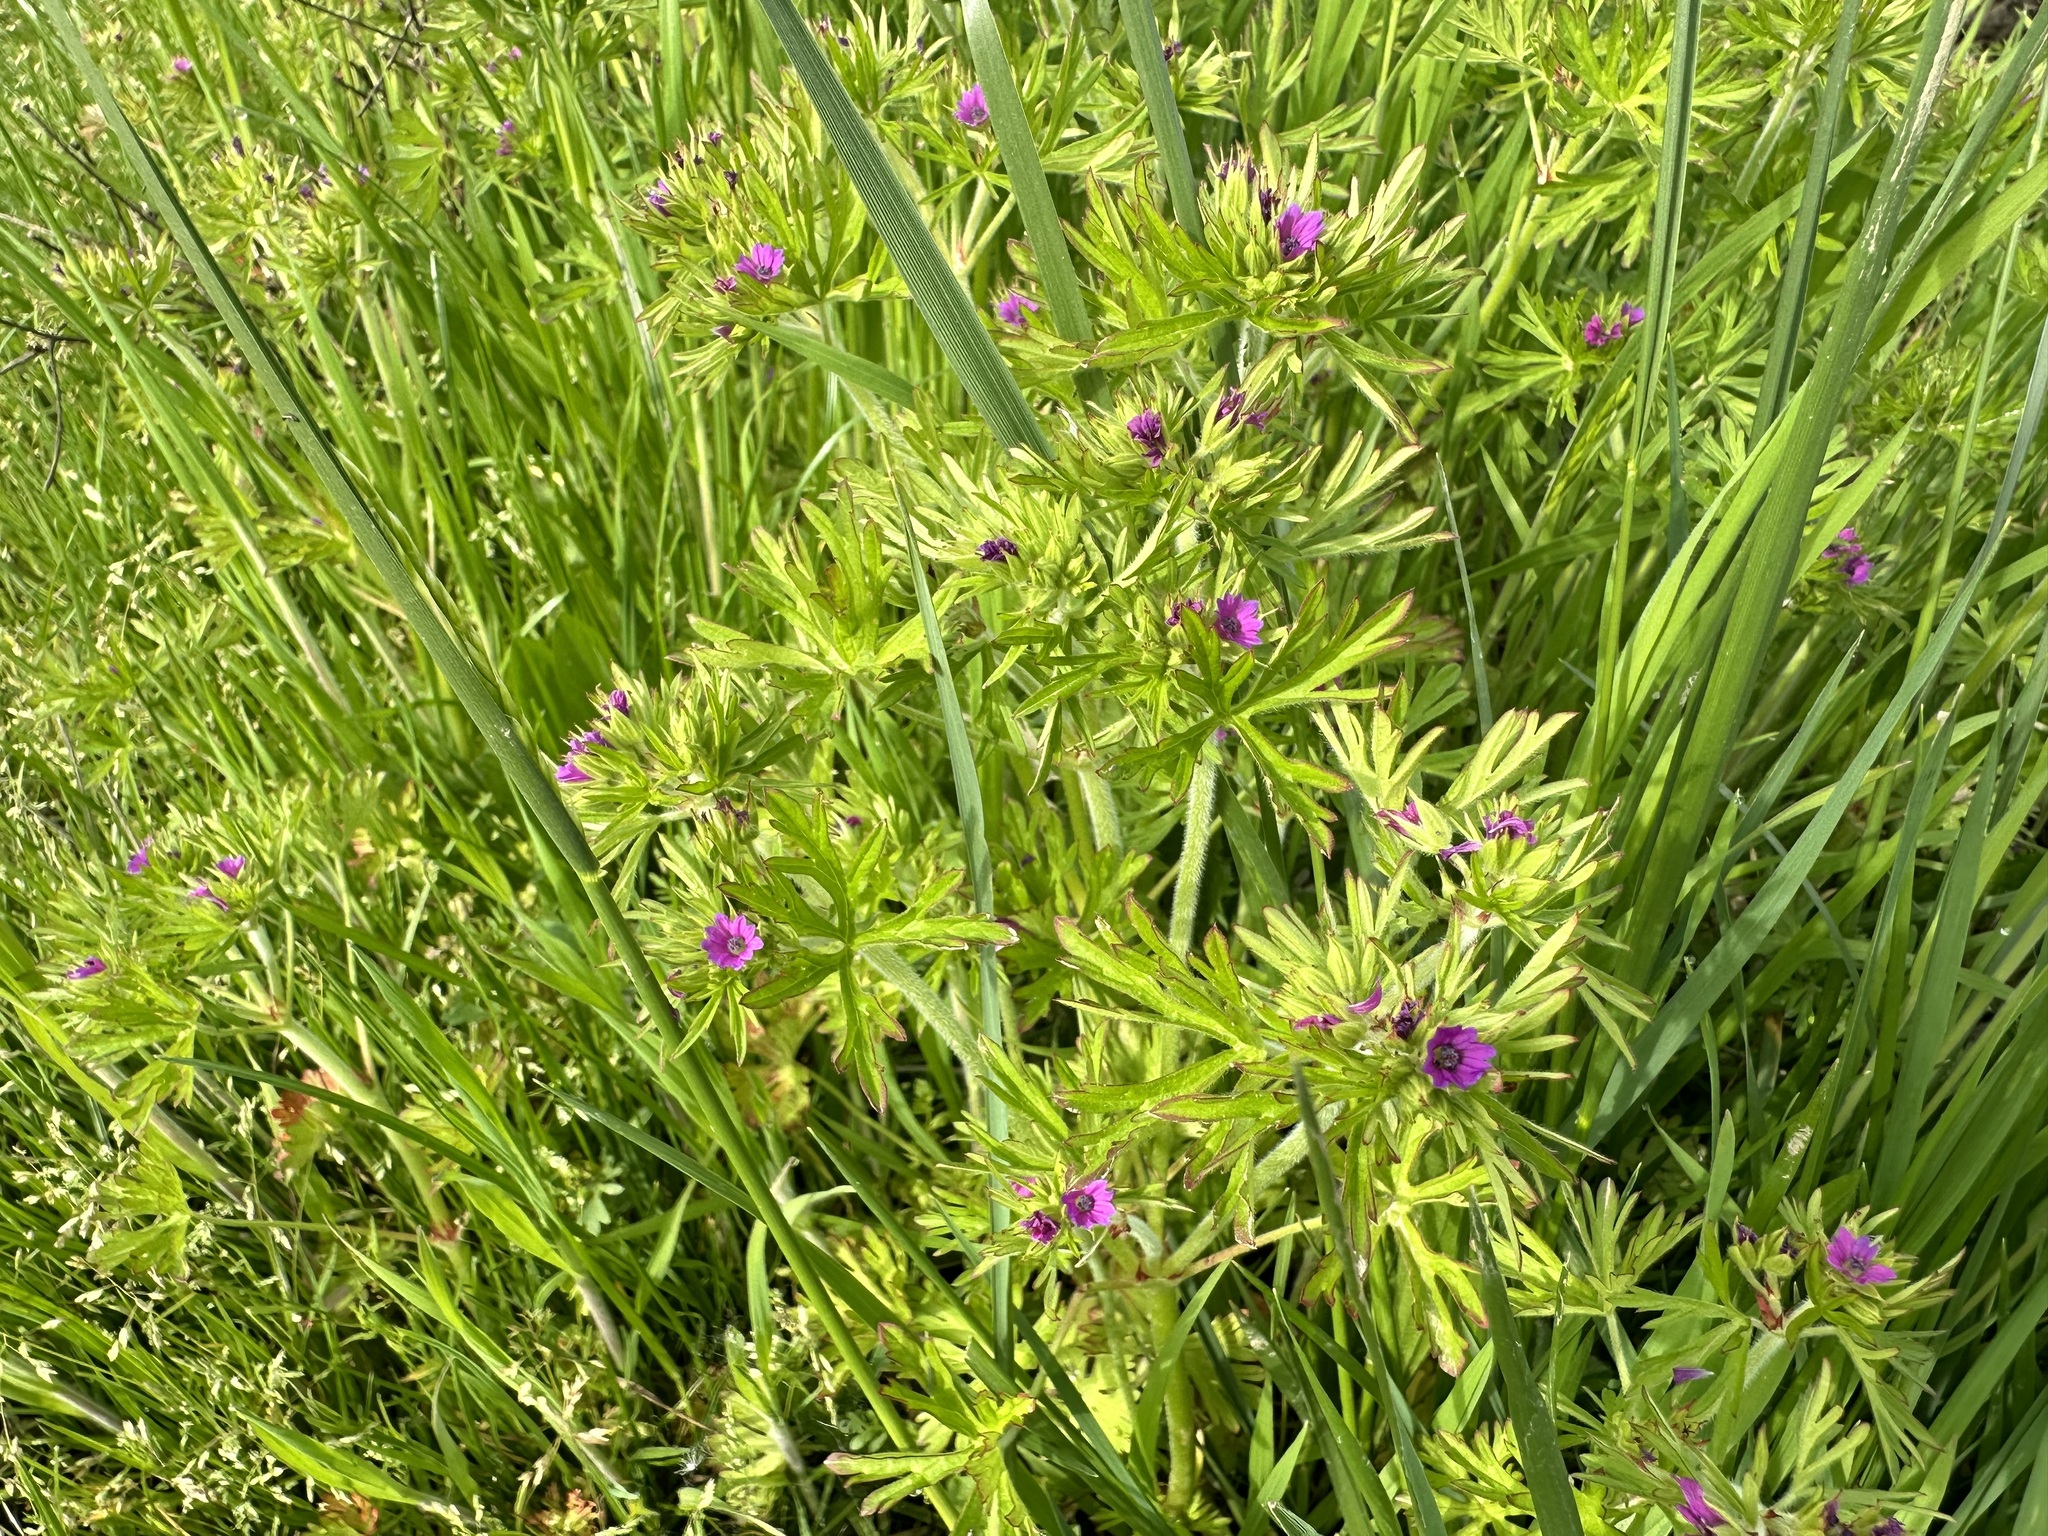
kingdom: Plantae
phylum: Tracheophyta
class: Magnoliopsida
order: Geraniales
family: Geraniaceae
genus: Geranium
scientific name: Geranium dissectum
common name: Cut-leaved crane's-bill
